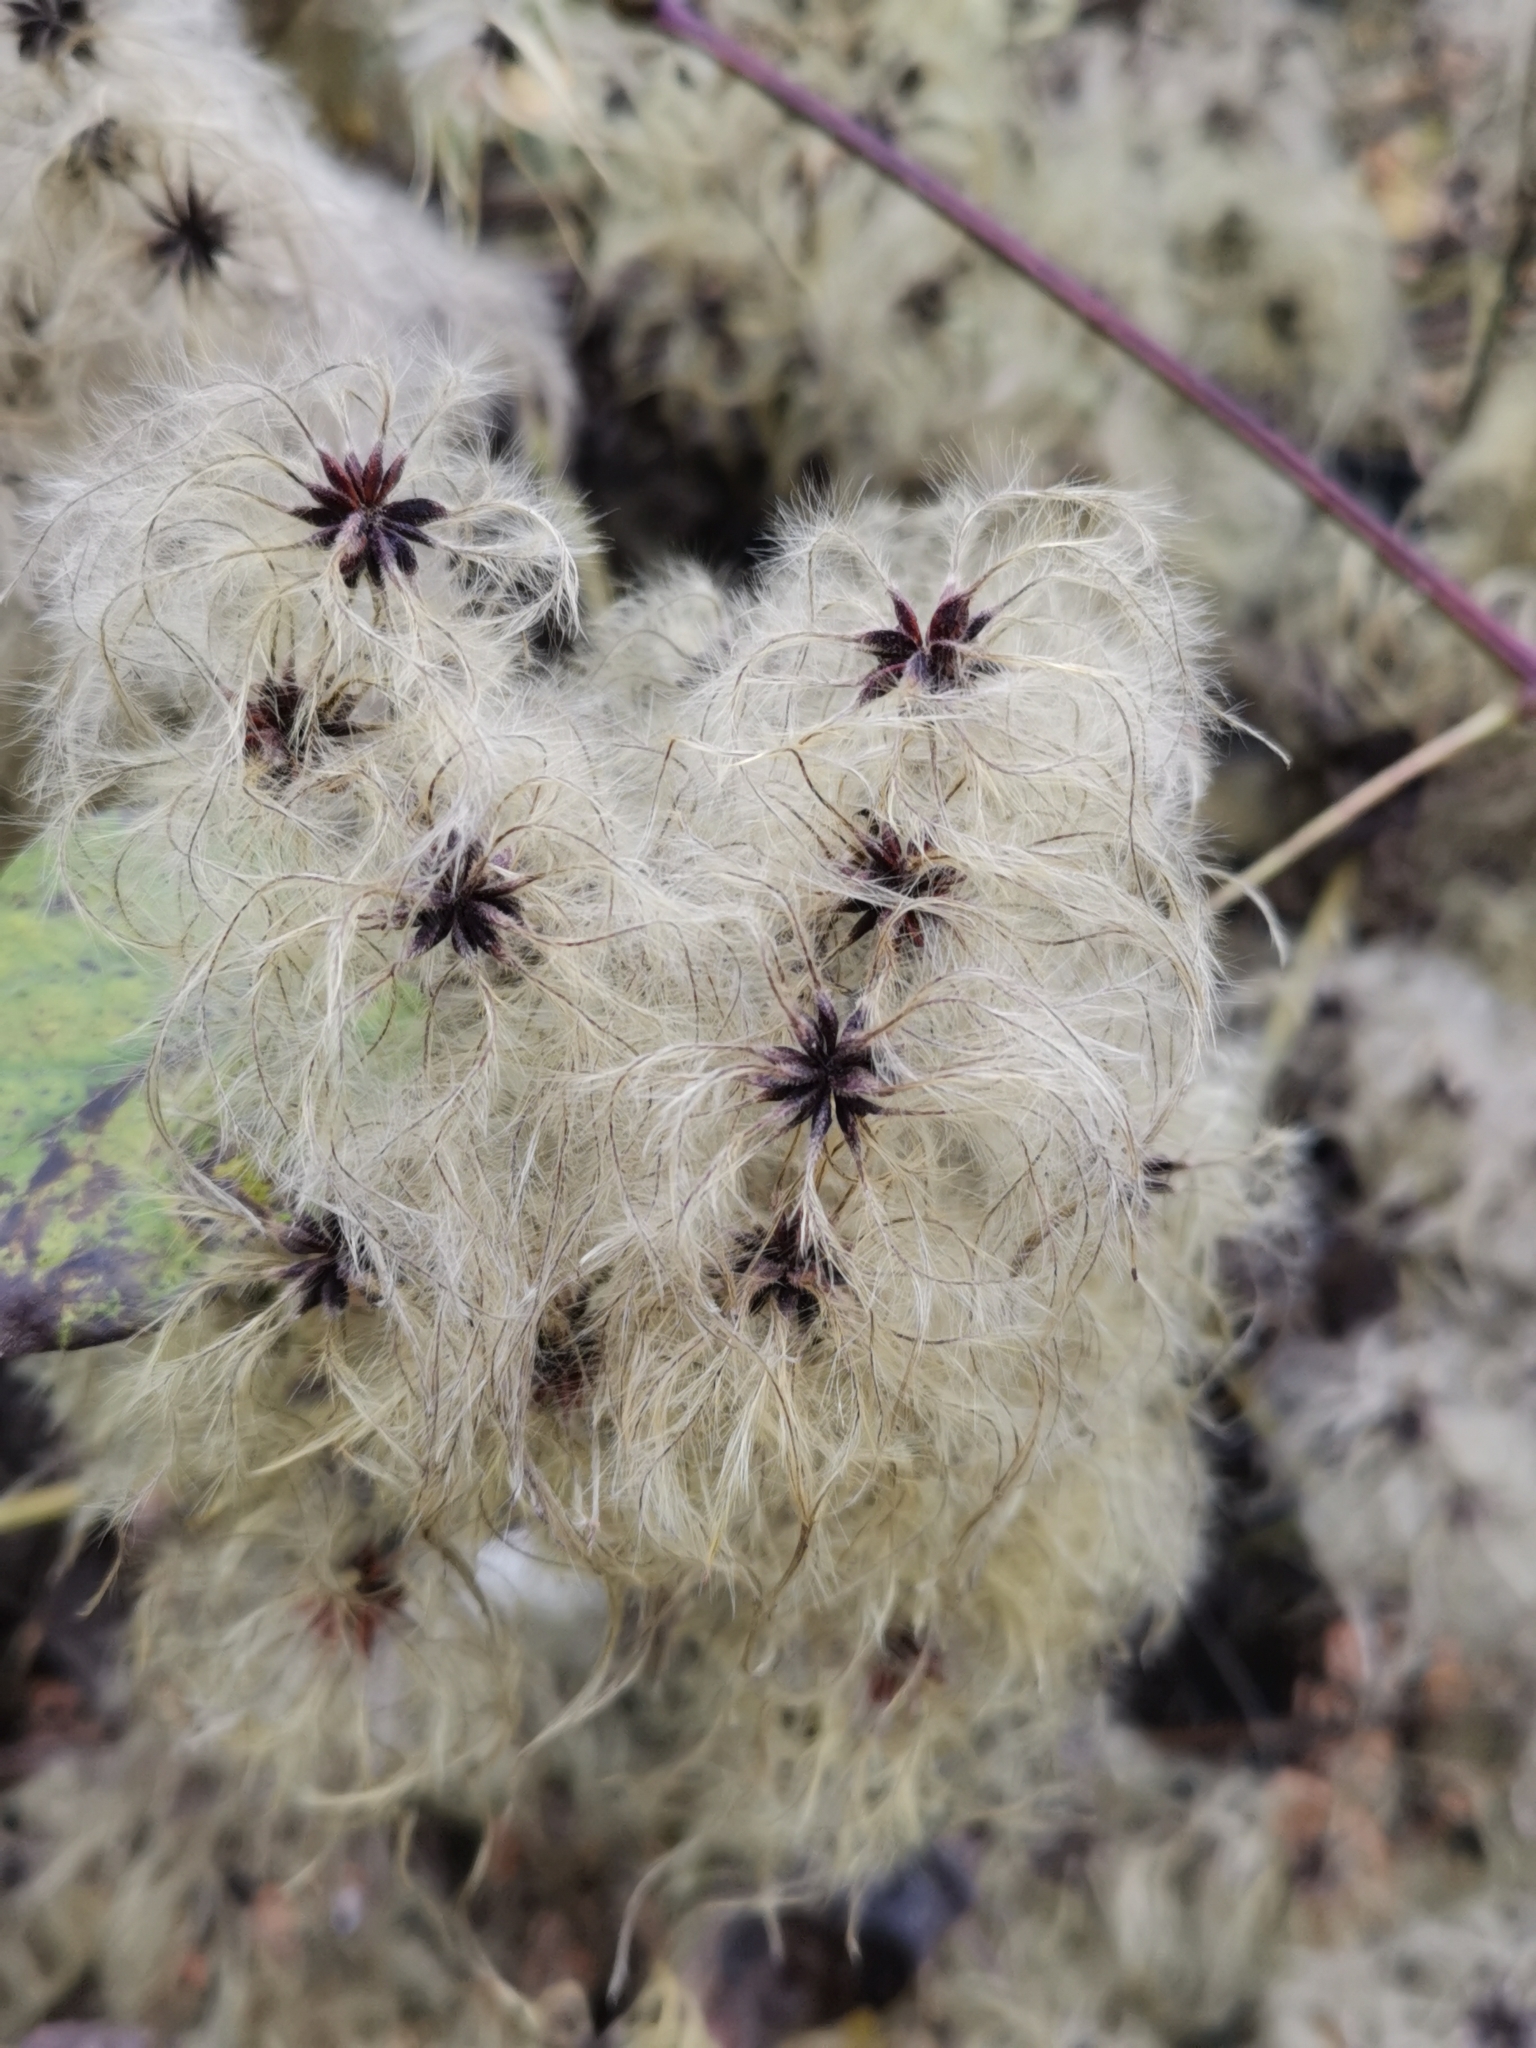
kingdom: Plantae
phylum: Tracheophyta
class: Magnoliopsida
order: Ranunculales
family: Ranunculaceae
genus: Clematis
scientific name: Clematis vitalba
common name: Evergreen clematis
